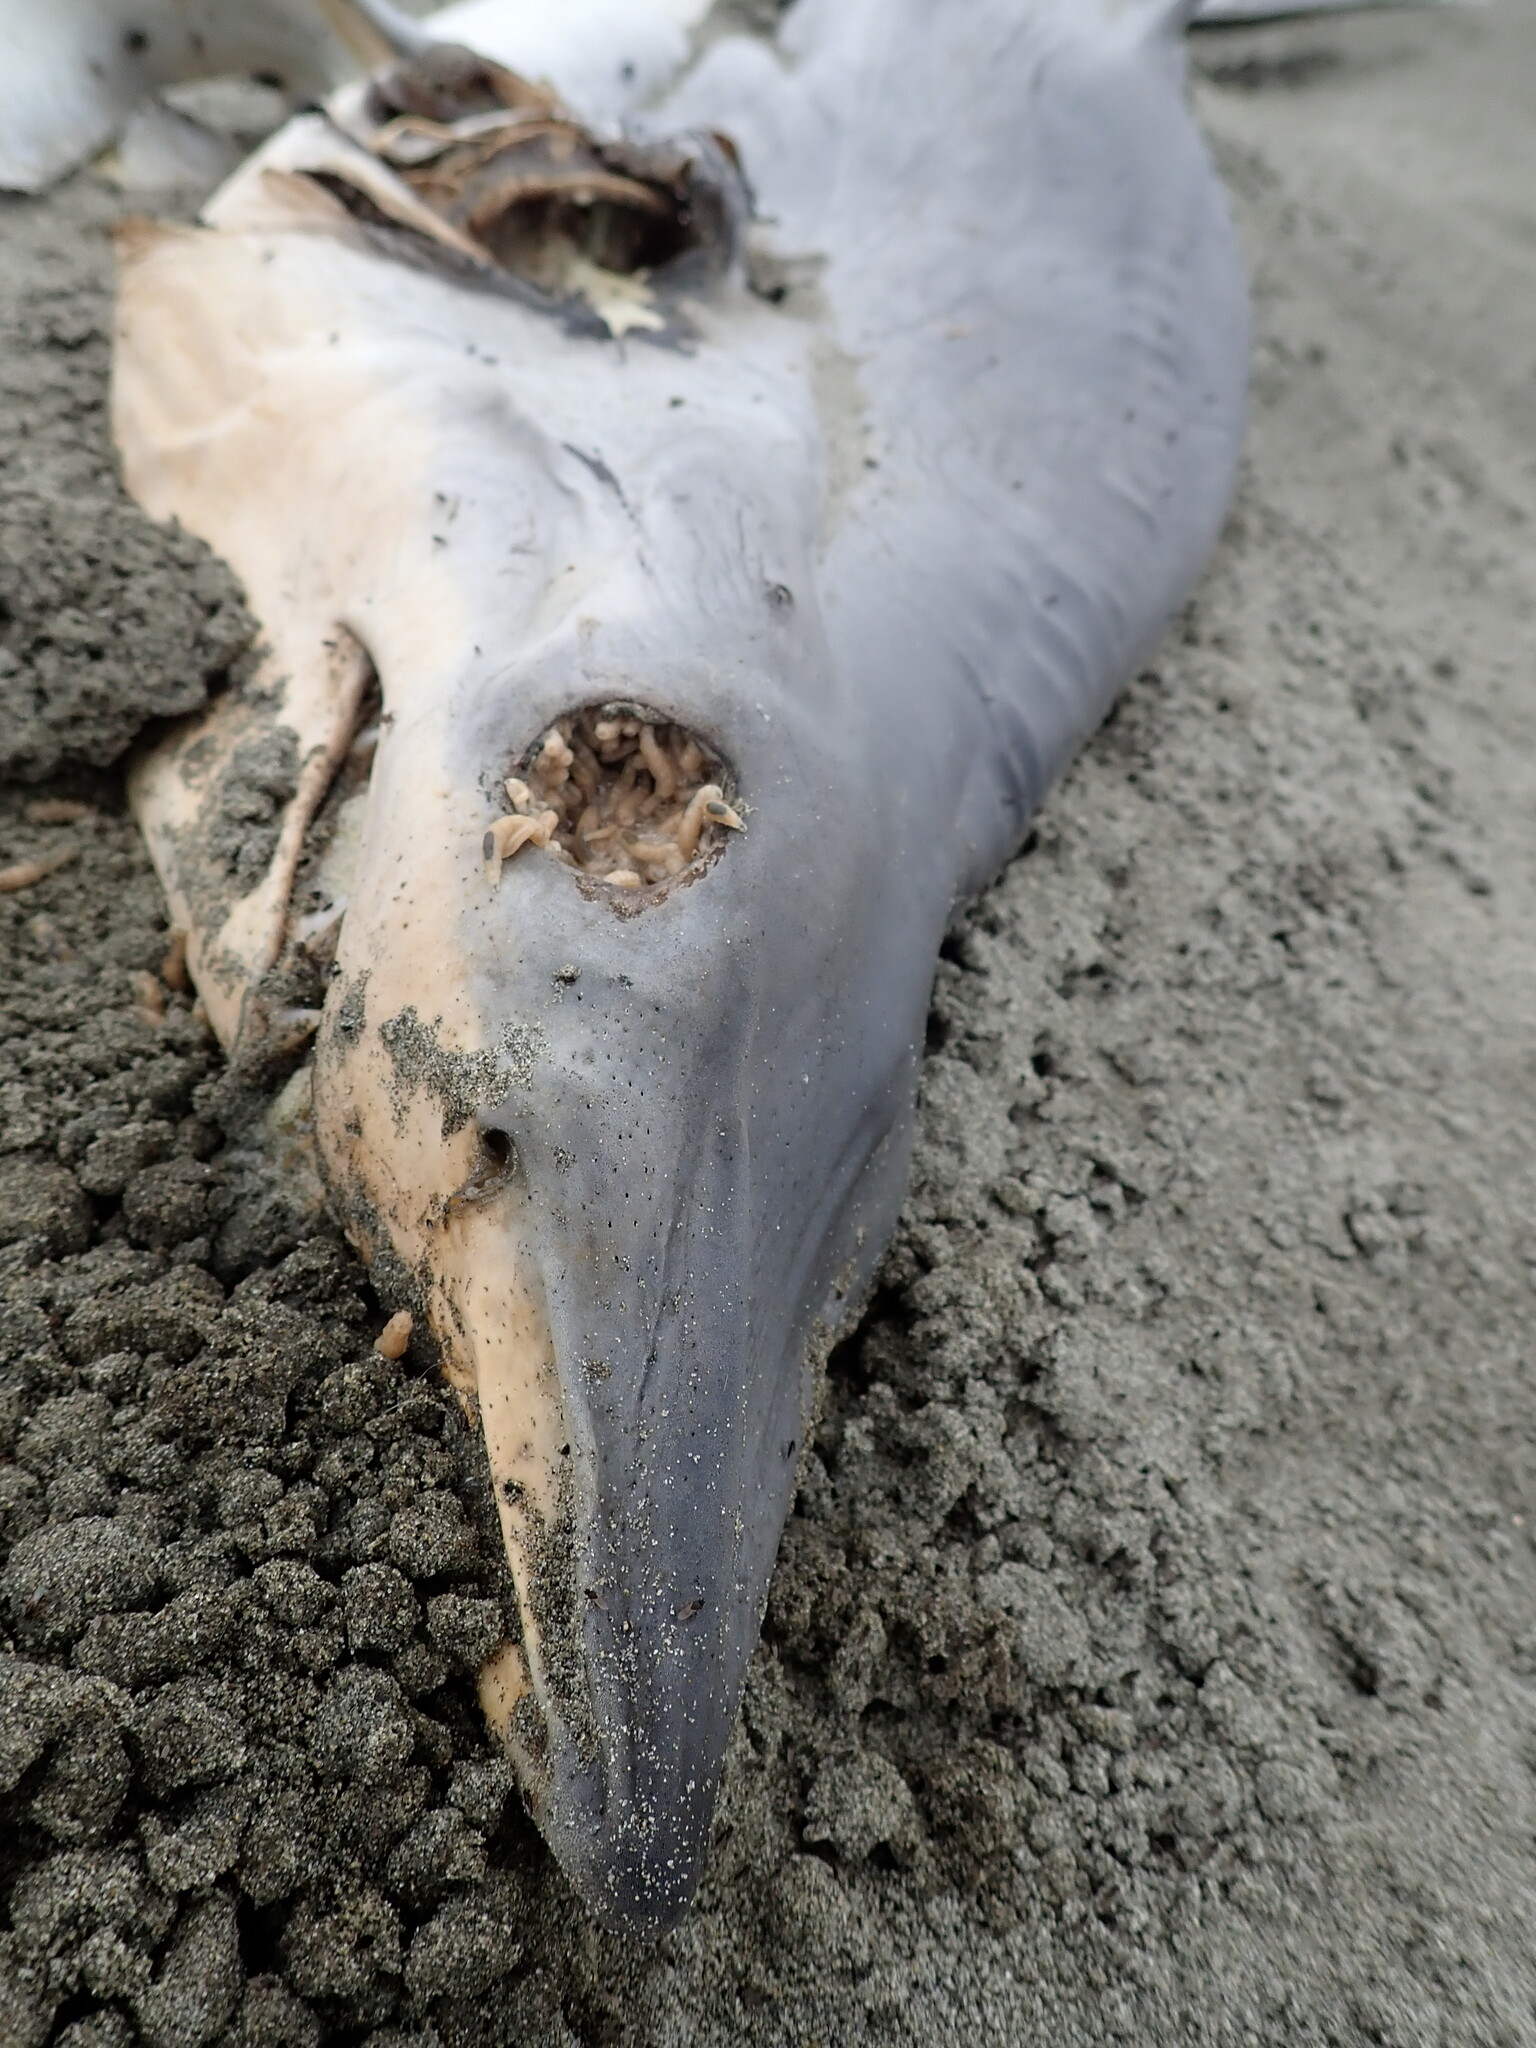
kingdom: Animalia
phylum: Chordata
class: Elasmobranchii
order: Lamniformes
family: Lamnidae
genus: Isurus
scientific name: Isurus oxyrinchus
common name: Shortfin mako
